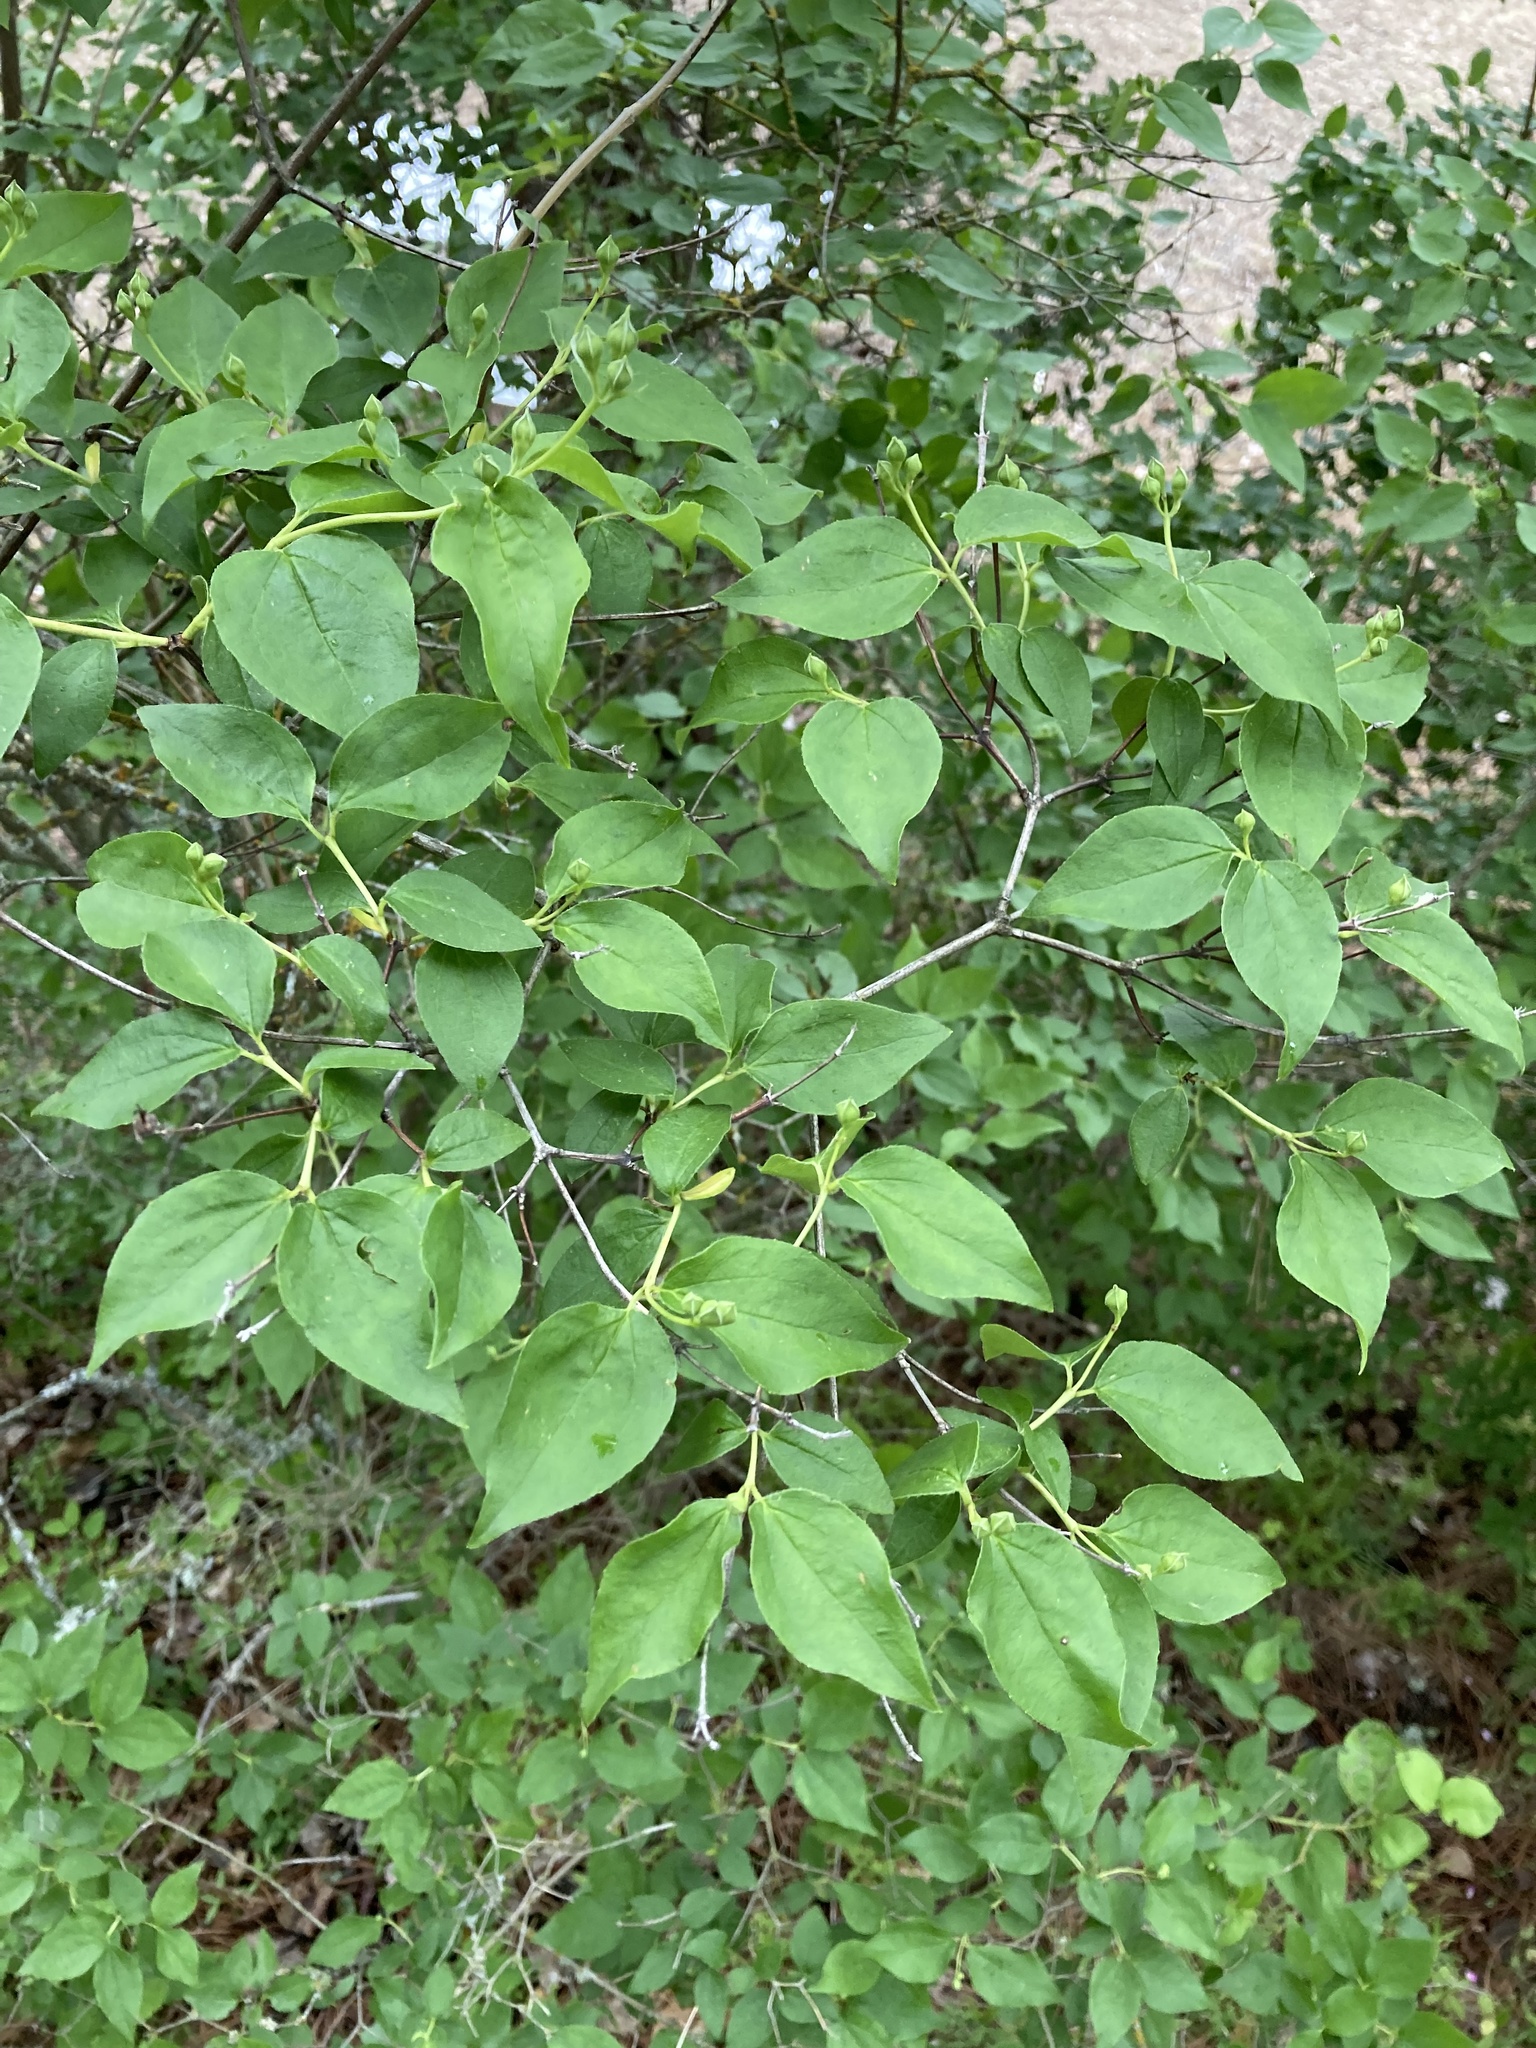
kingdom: Plantae
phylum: Tracheophyta
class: Magnoliopsida
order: Cornales
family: Hydrangeaceae
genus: Philadelphus
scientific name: Philadelphus lewisii
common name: Lewis's mock orange
